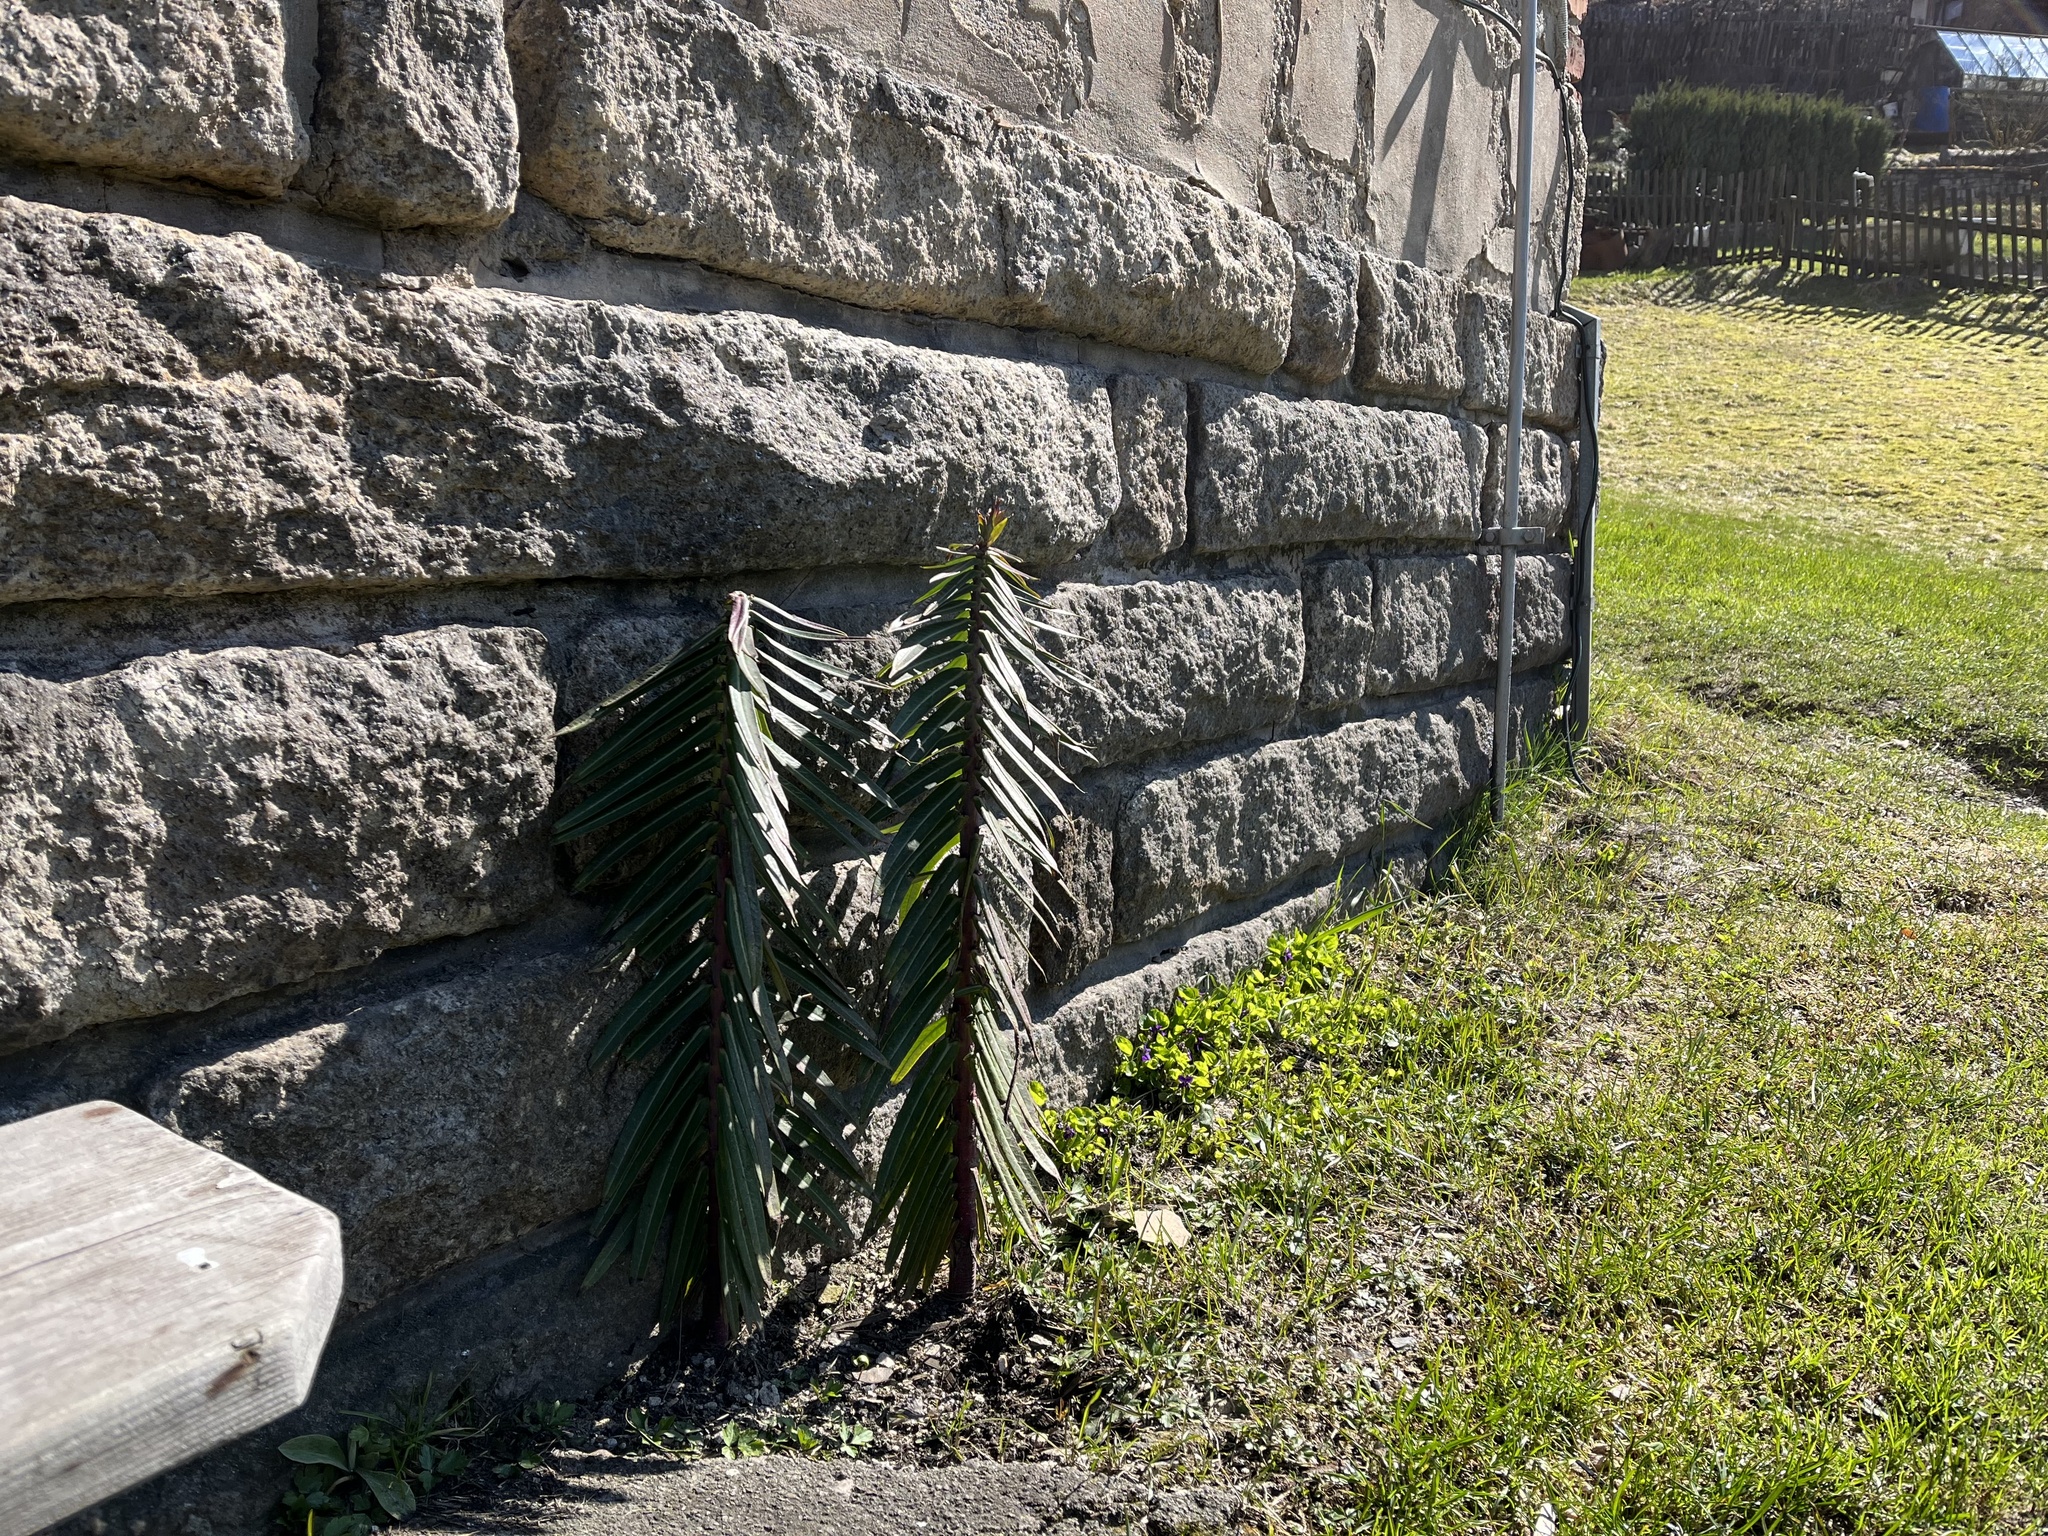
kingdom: Plantae
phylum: Tracheophyta
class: Magnoliopsida
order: Malpighiales
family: Euphorbiaceae
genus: Euphorbia
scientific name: Euphorbia lathyris
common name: Caper spurge
